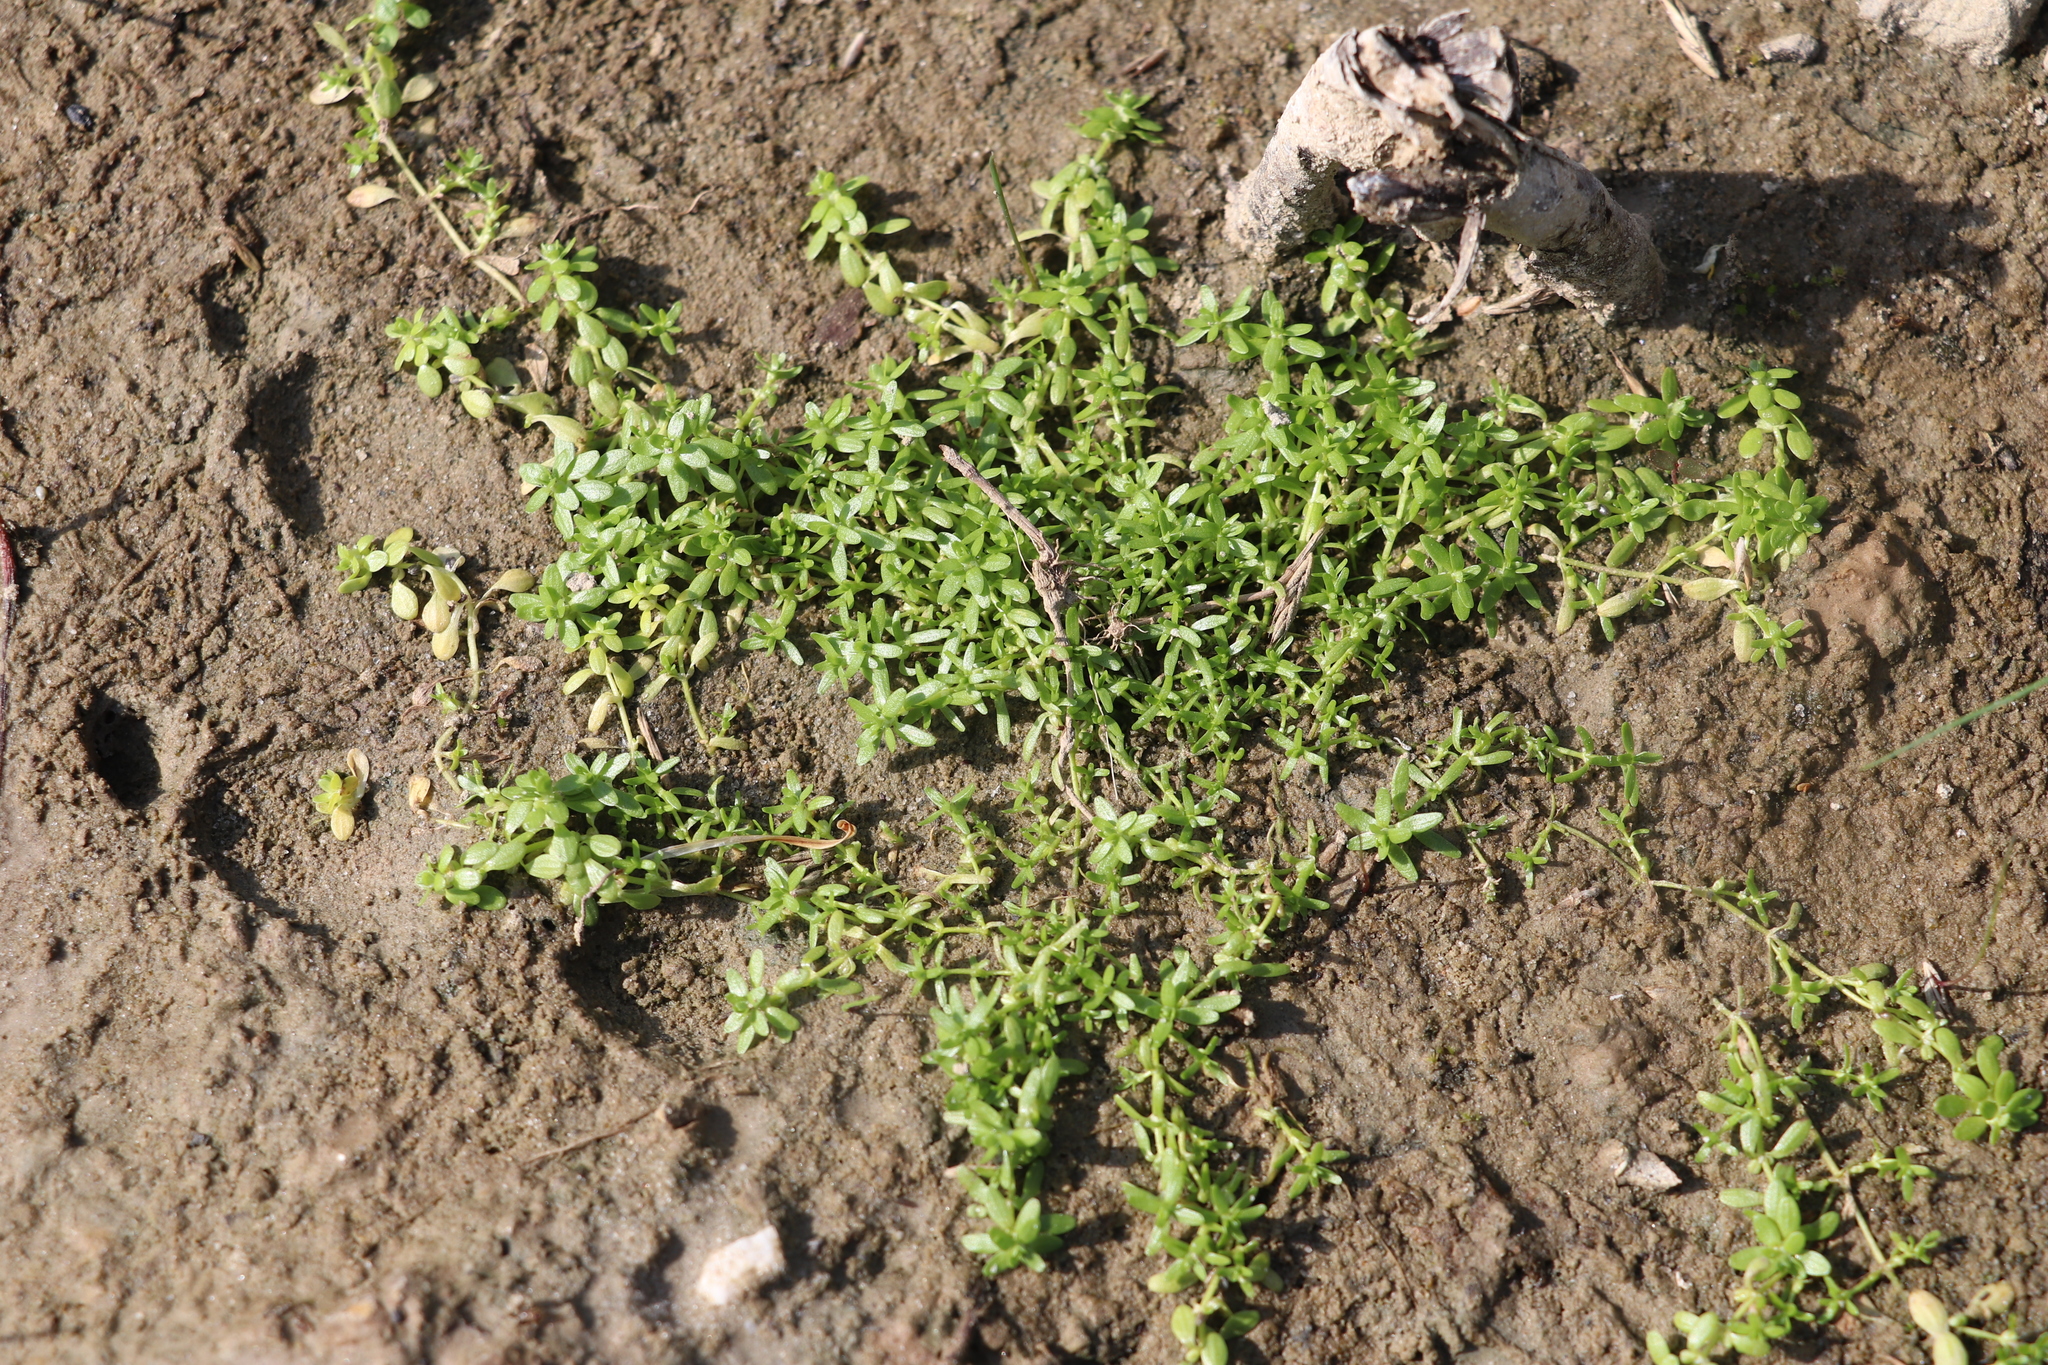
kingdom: Plantae
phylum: Tracheophyta
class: Magnoliopsida
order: Lamiales
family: Plantaginaceae
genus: Callitriche
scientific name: Callitriche palustris
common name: Spring water-starwort
